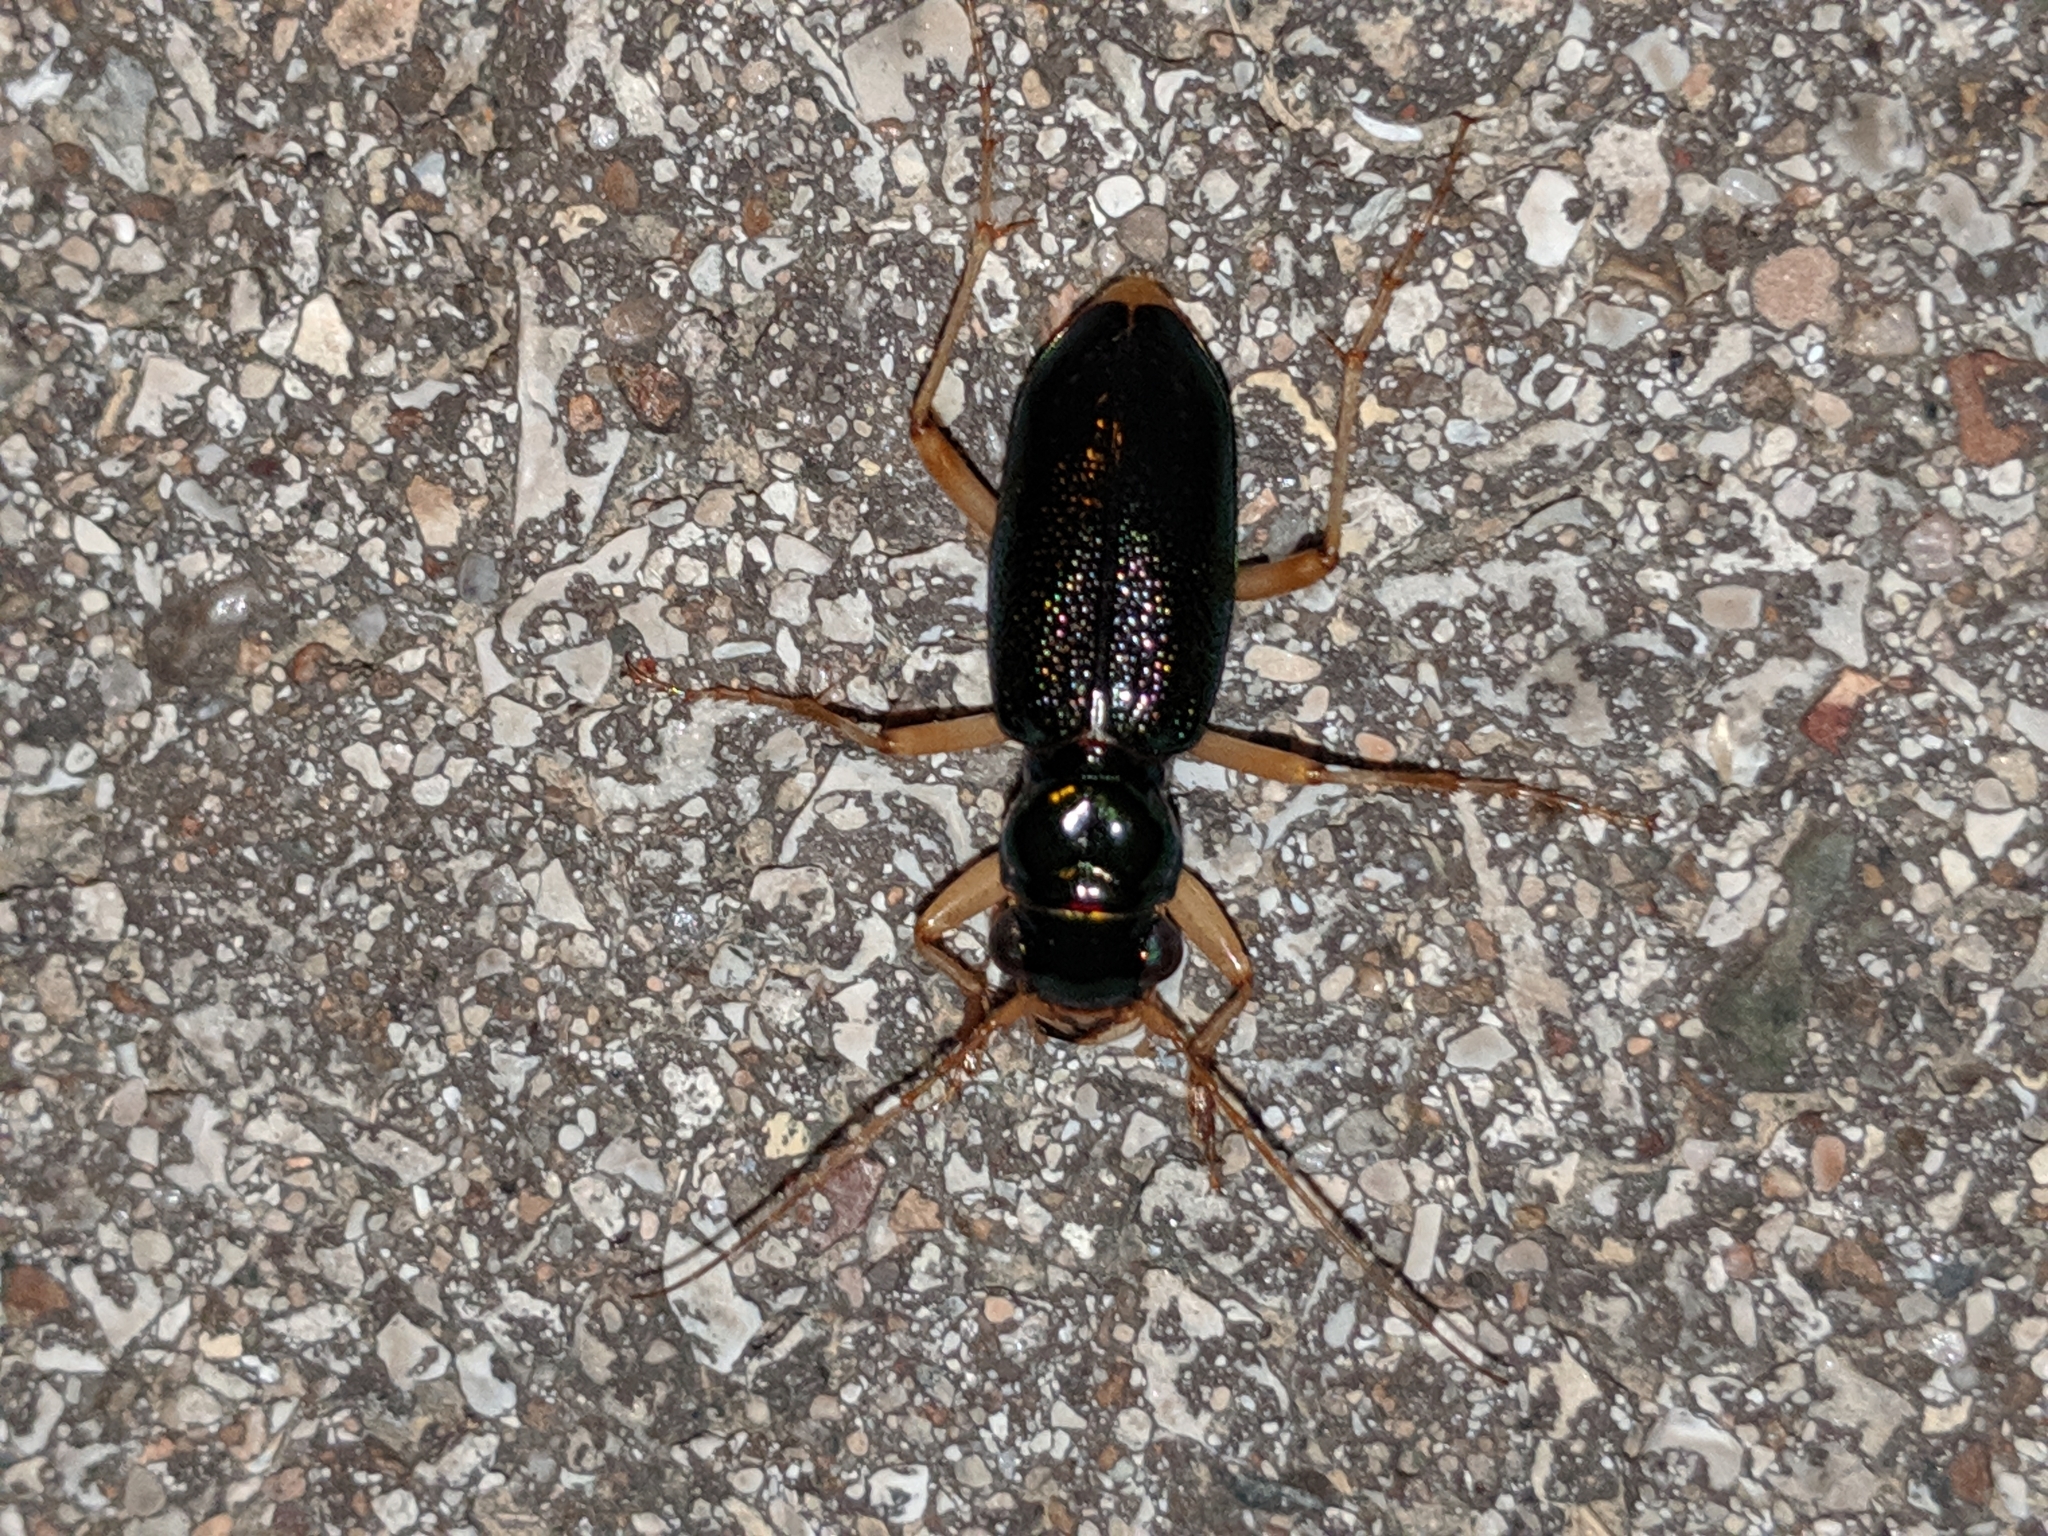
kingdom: Animalia
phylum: Arthropoda
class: Insecta
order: Coleoptera
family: Carabidae
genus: Tetracha
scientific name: Tetracha virginica
